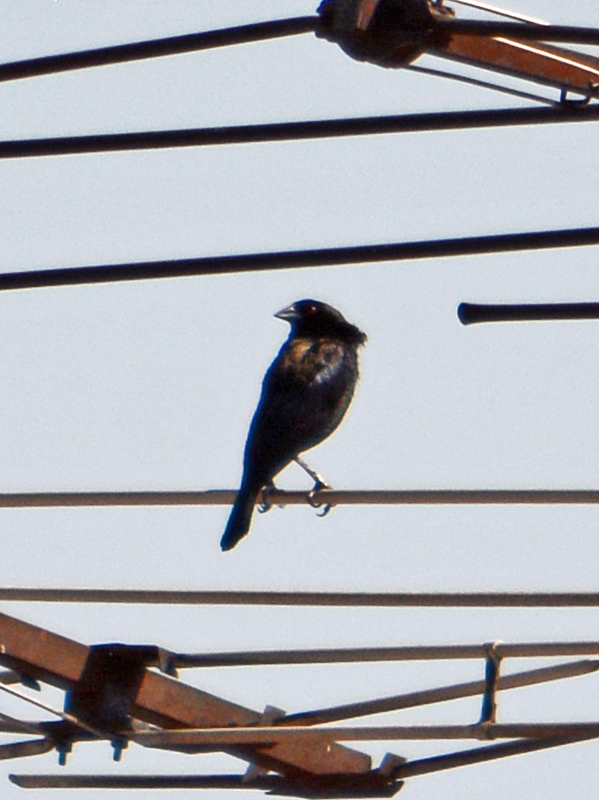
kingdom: Animalia
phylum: Chordata
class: Aves
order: Passeriformes
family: Icteridae
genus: Molothrus
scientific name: Molothrus aeneus
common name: Bronzed cowbird
